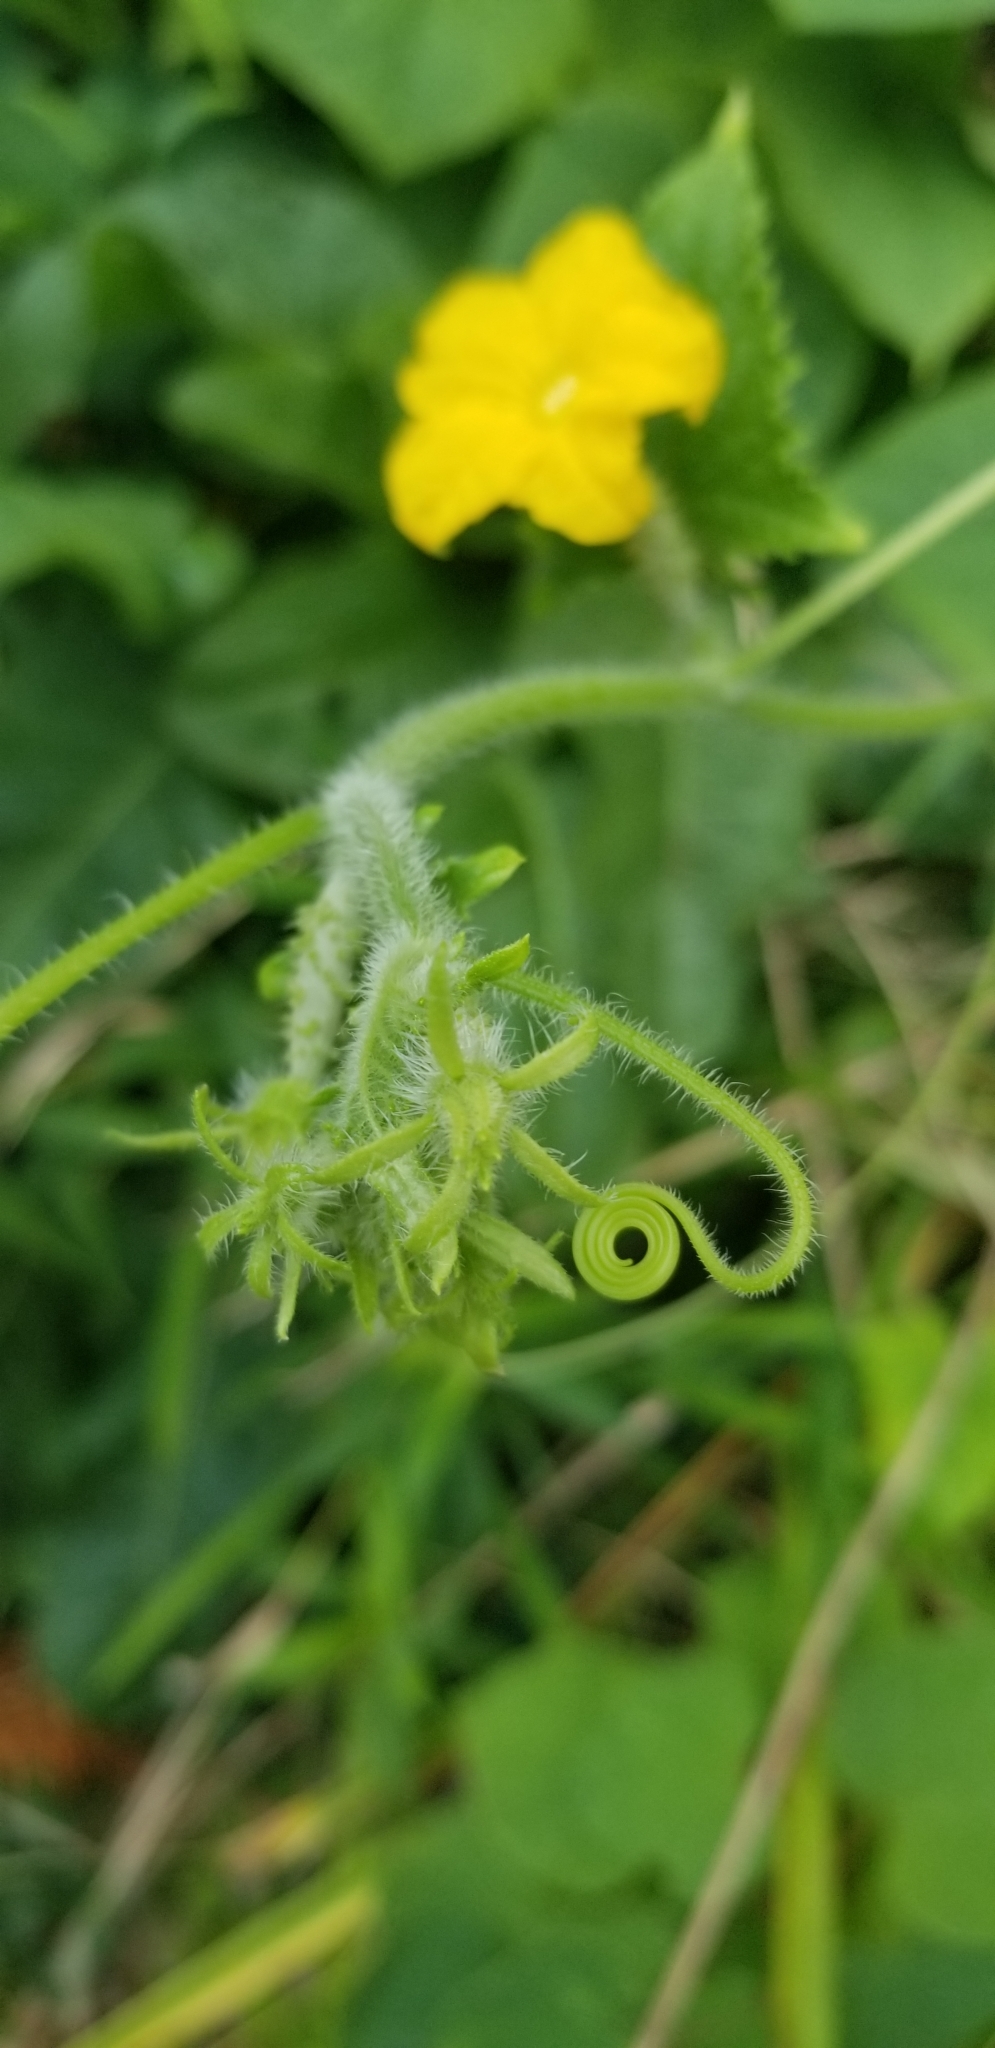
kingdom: Plantae
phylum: Tracheophyta
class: Magnoliopsida
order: Cucurbitales
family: Cucurbitaceae
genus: Cucumis
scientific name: Cucumis sativus
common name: Cucumber
